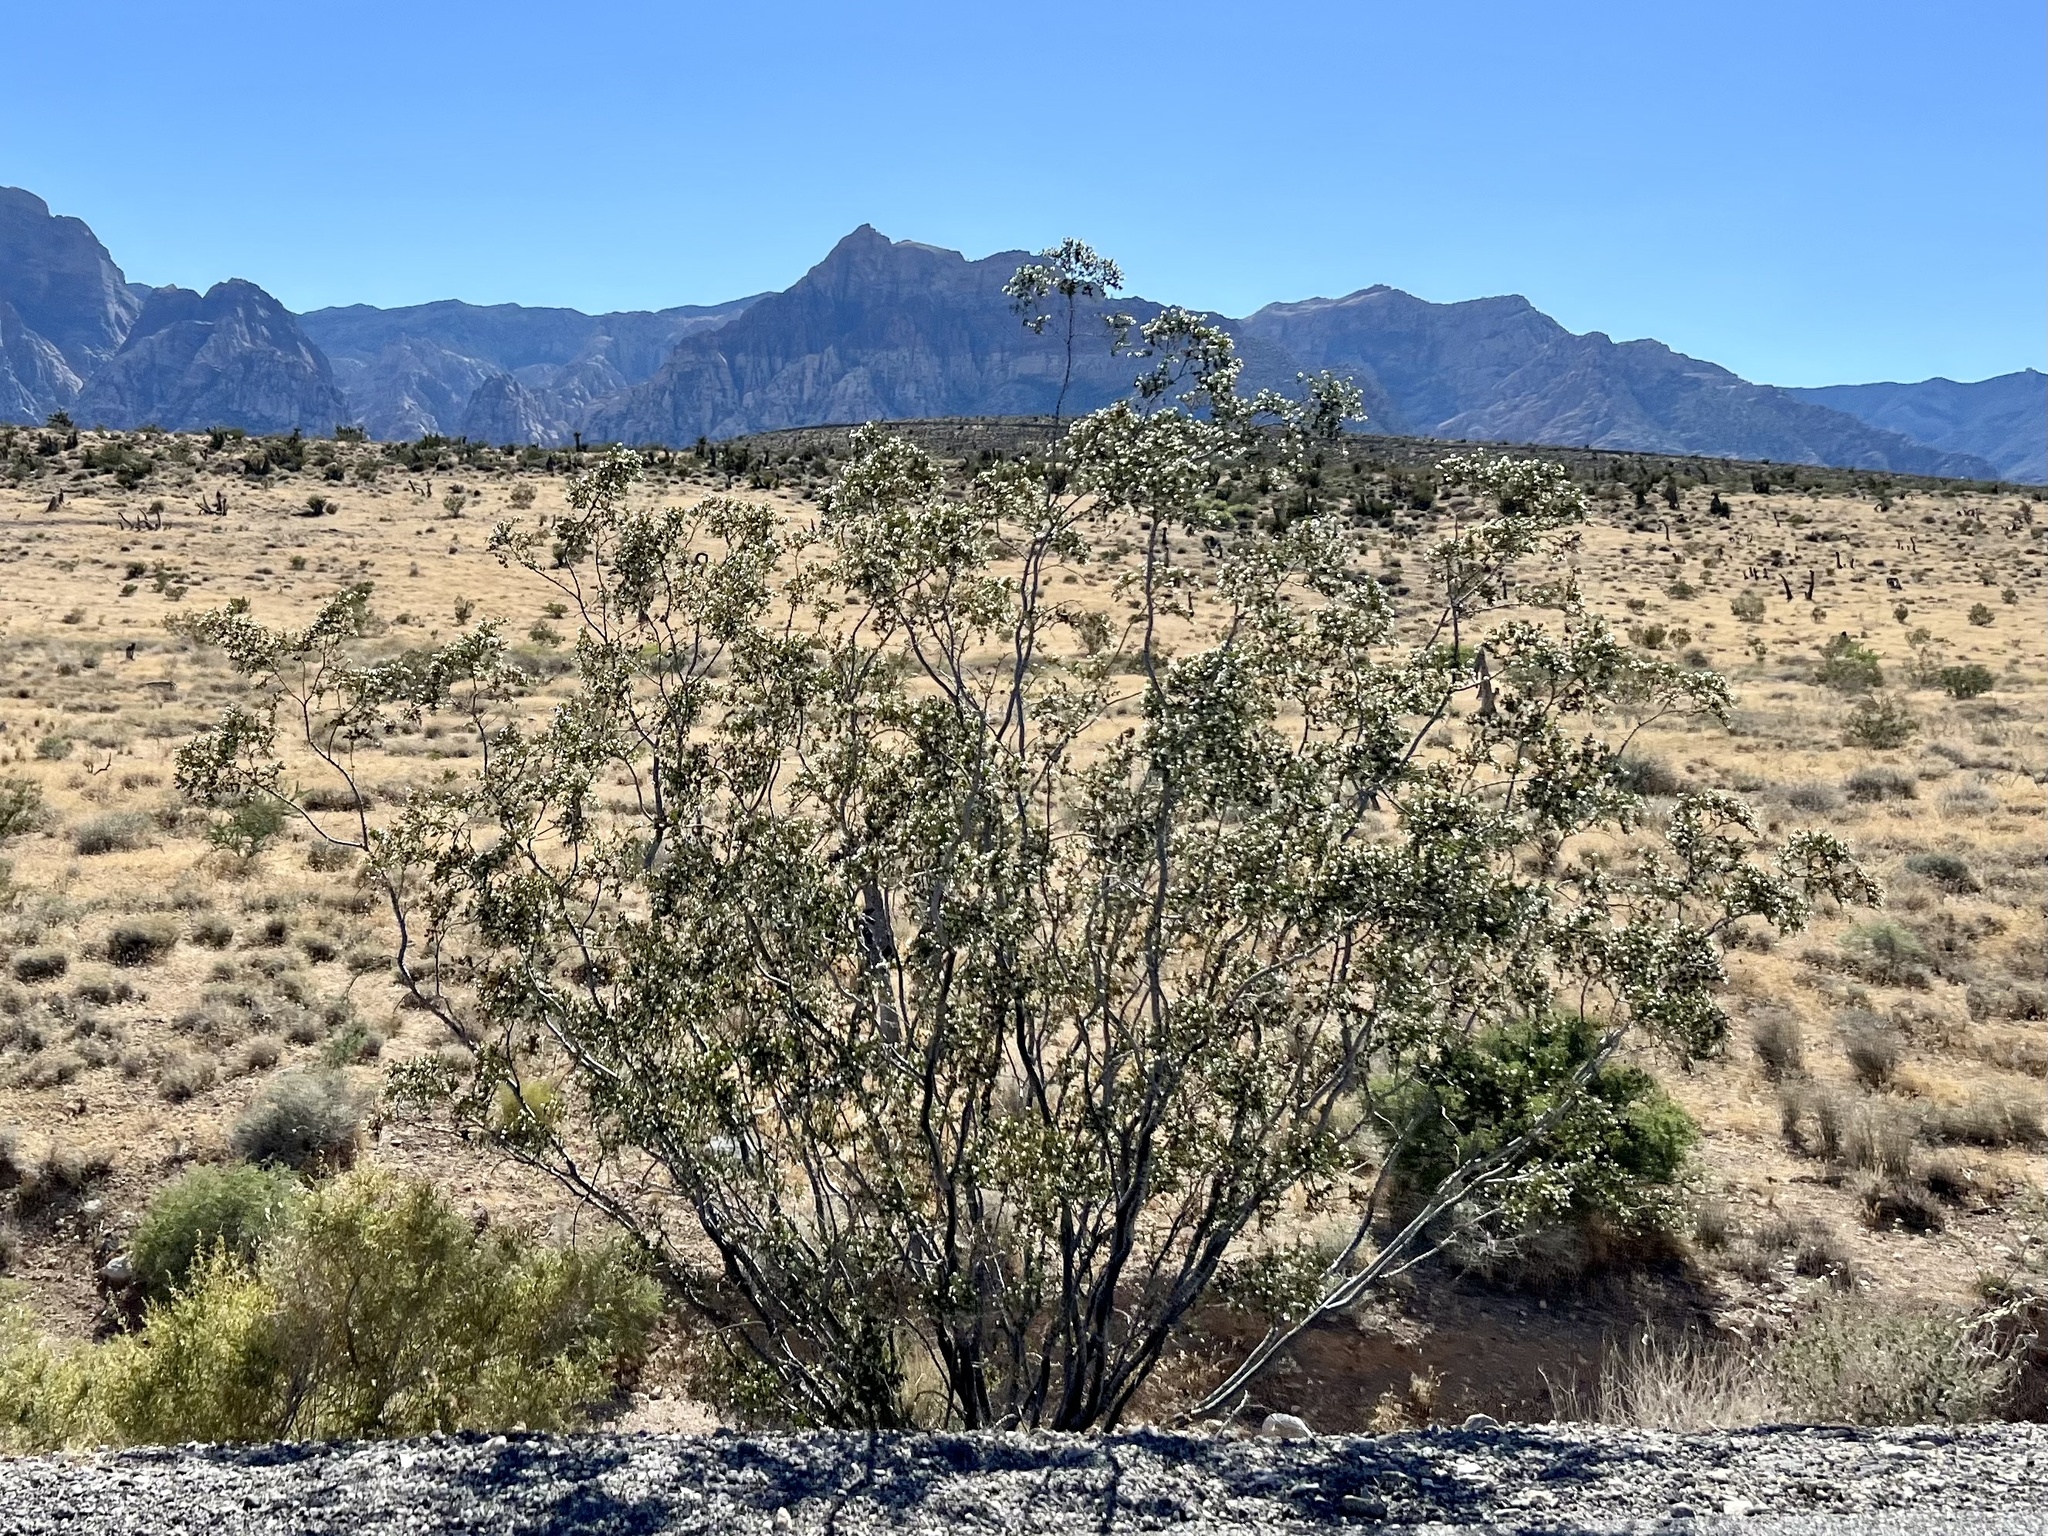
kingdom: Plantae
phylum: Tracheophyta
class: Magnoliopsida
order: Zygophyllales
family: Zygophyllaceae
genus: Larrea
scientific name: Larrea tridentata
